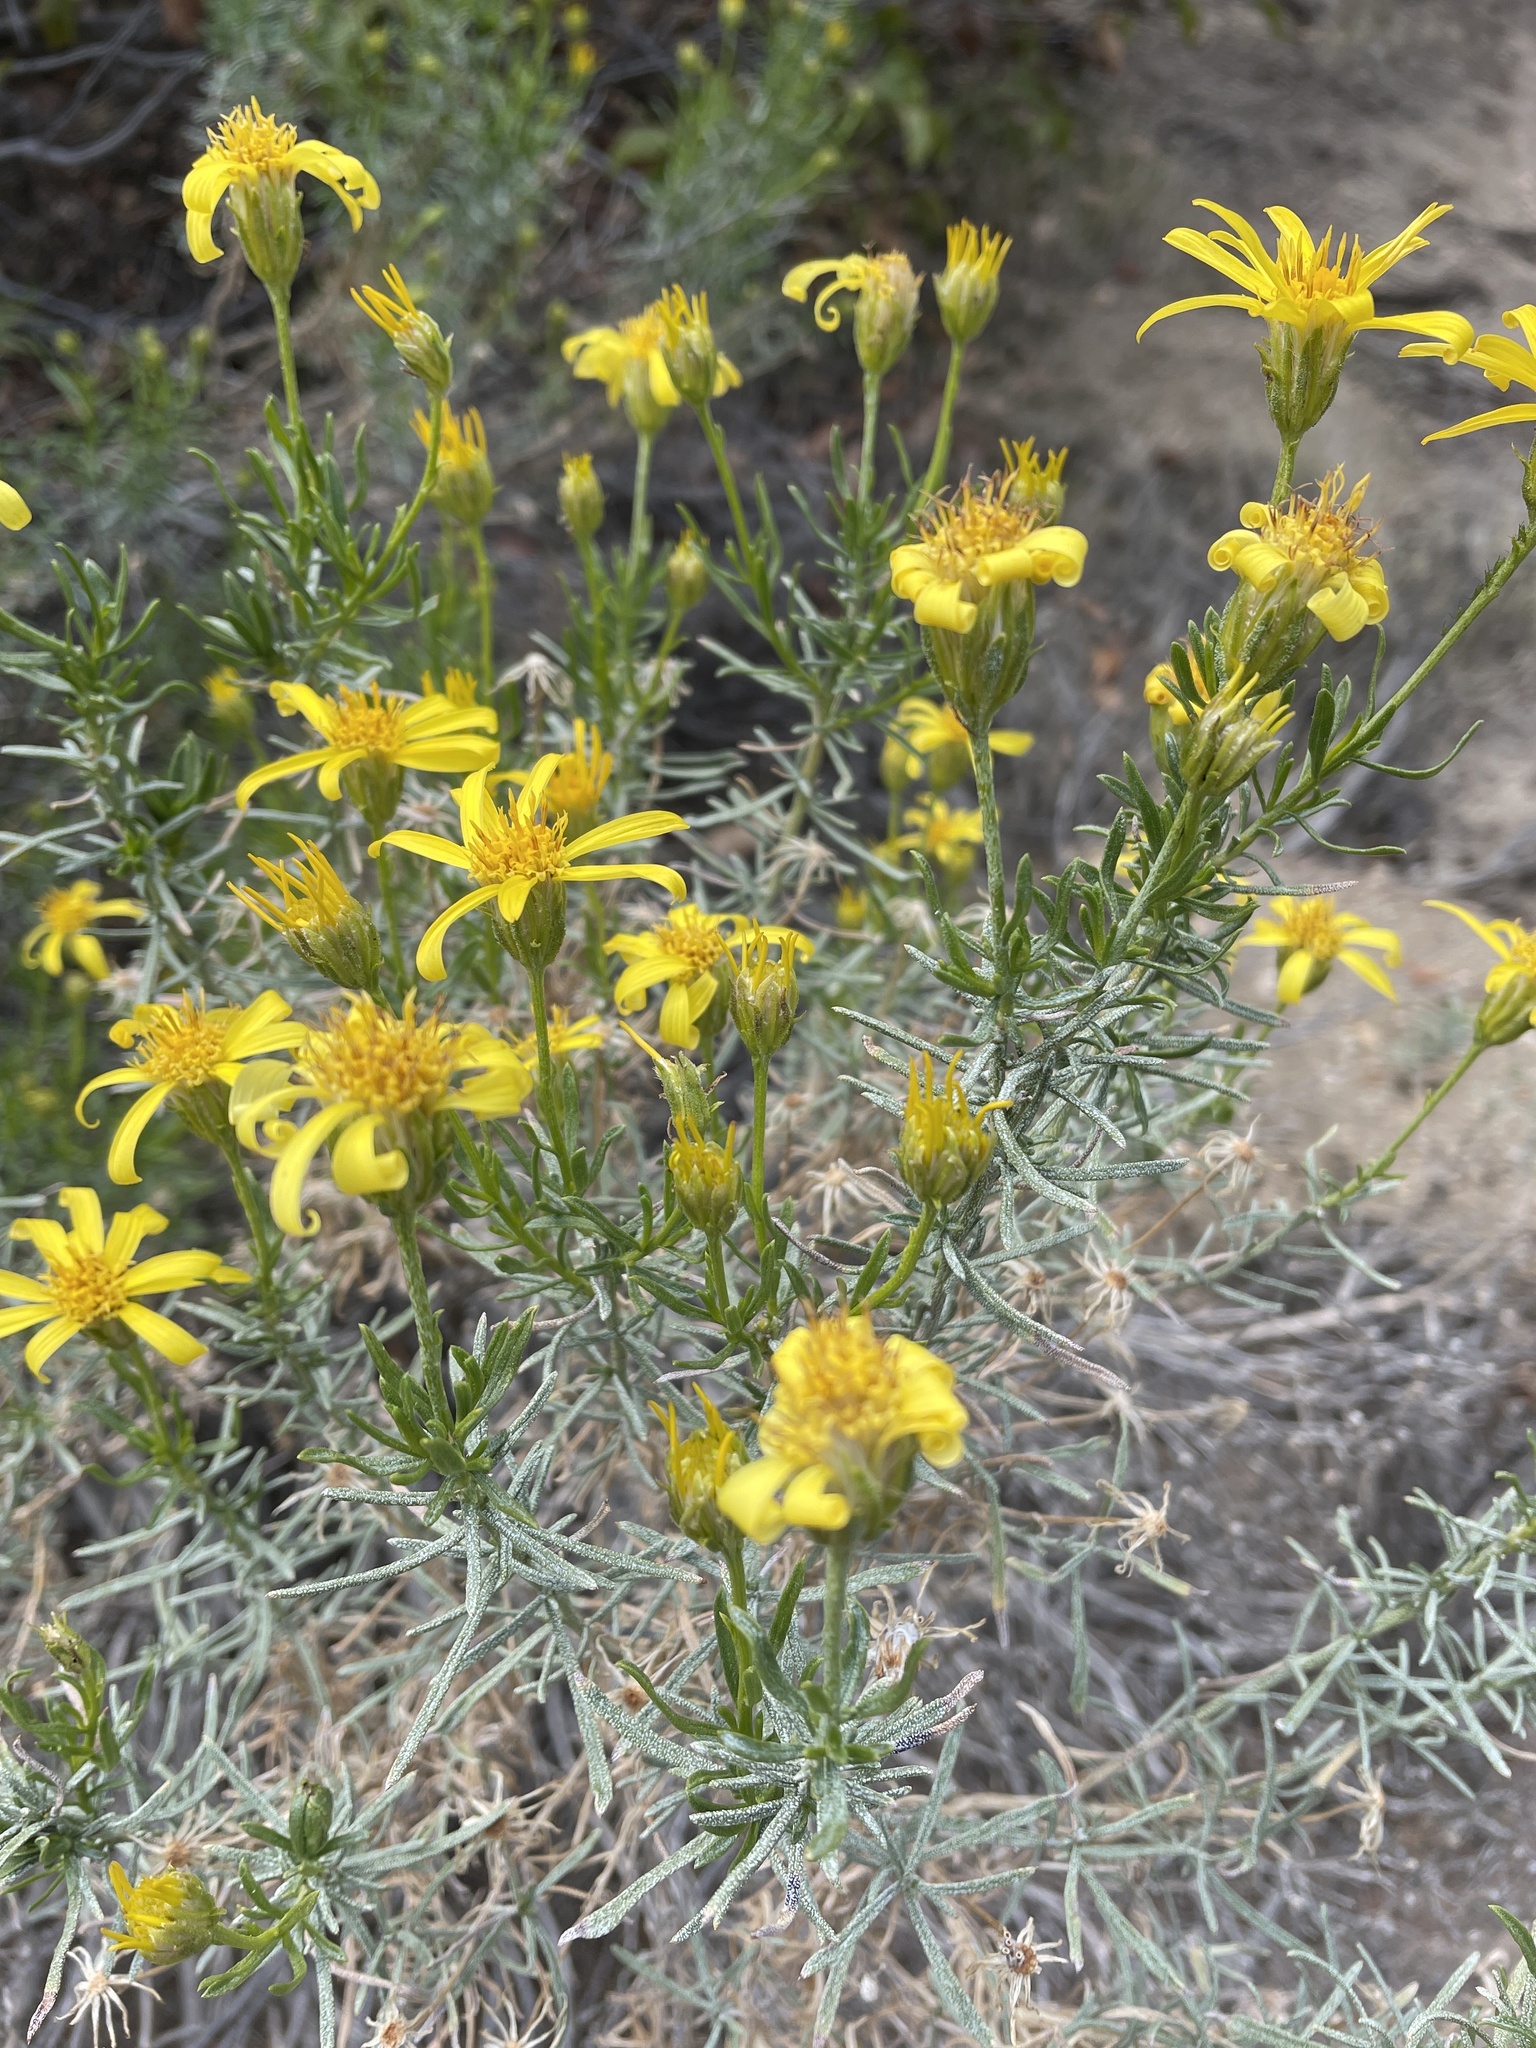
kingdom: Plantae
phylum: Tracheophyta
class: Magnoliopsida
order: Asterales
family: Asteraceae
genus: Ericameria
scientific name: Ericameria linearifolia
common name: Interior goldenbush
